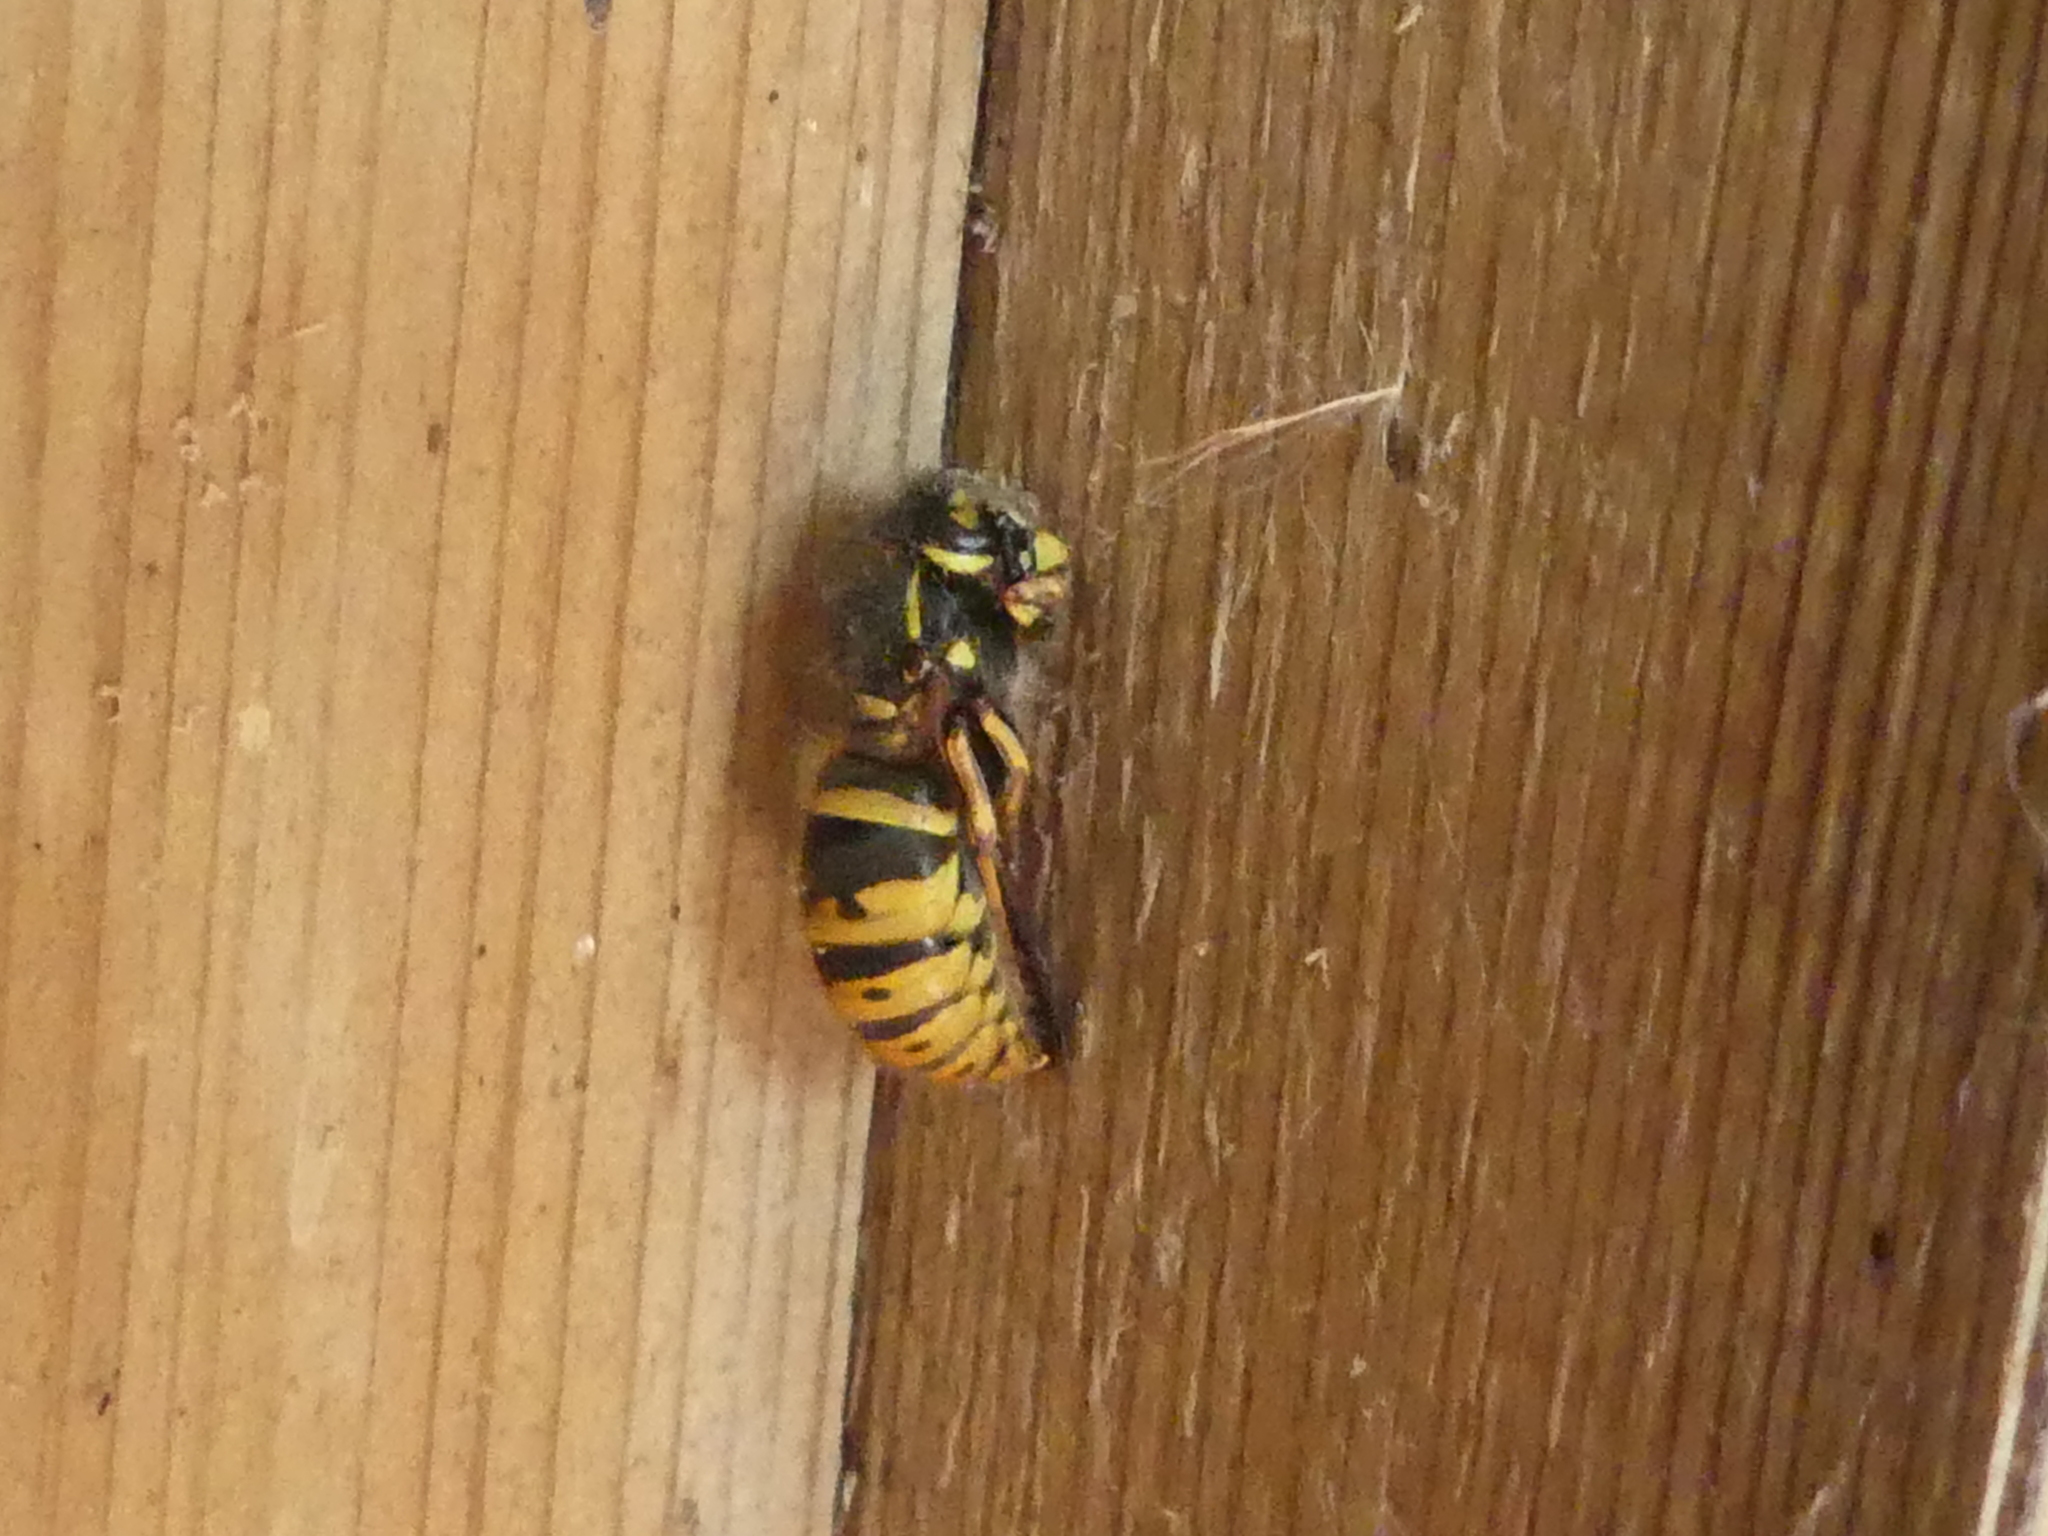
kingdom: Animalia
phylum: Arthropoda
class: Insecta
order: Hymenoptera
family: Vespidae
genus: Vespula
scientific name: Vespula vulgaris
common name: Common wasp
